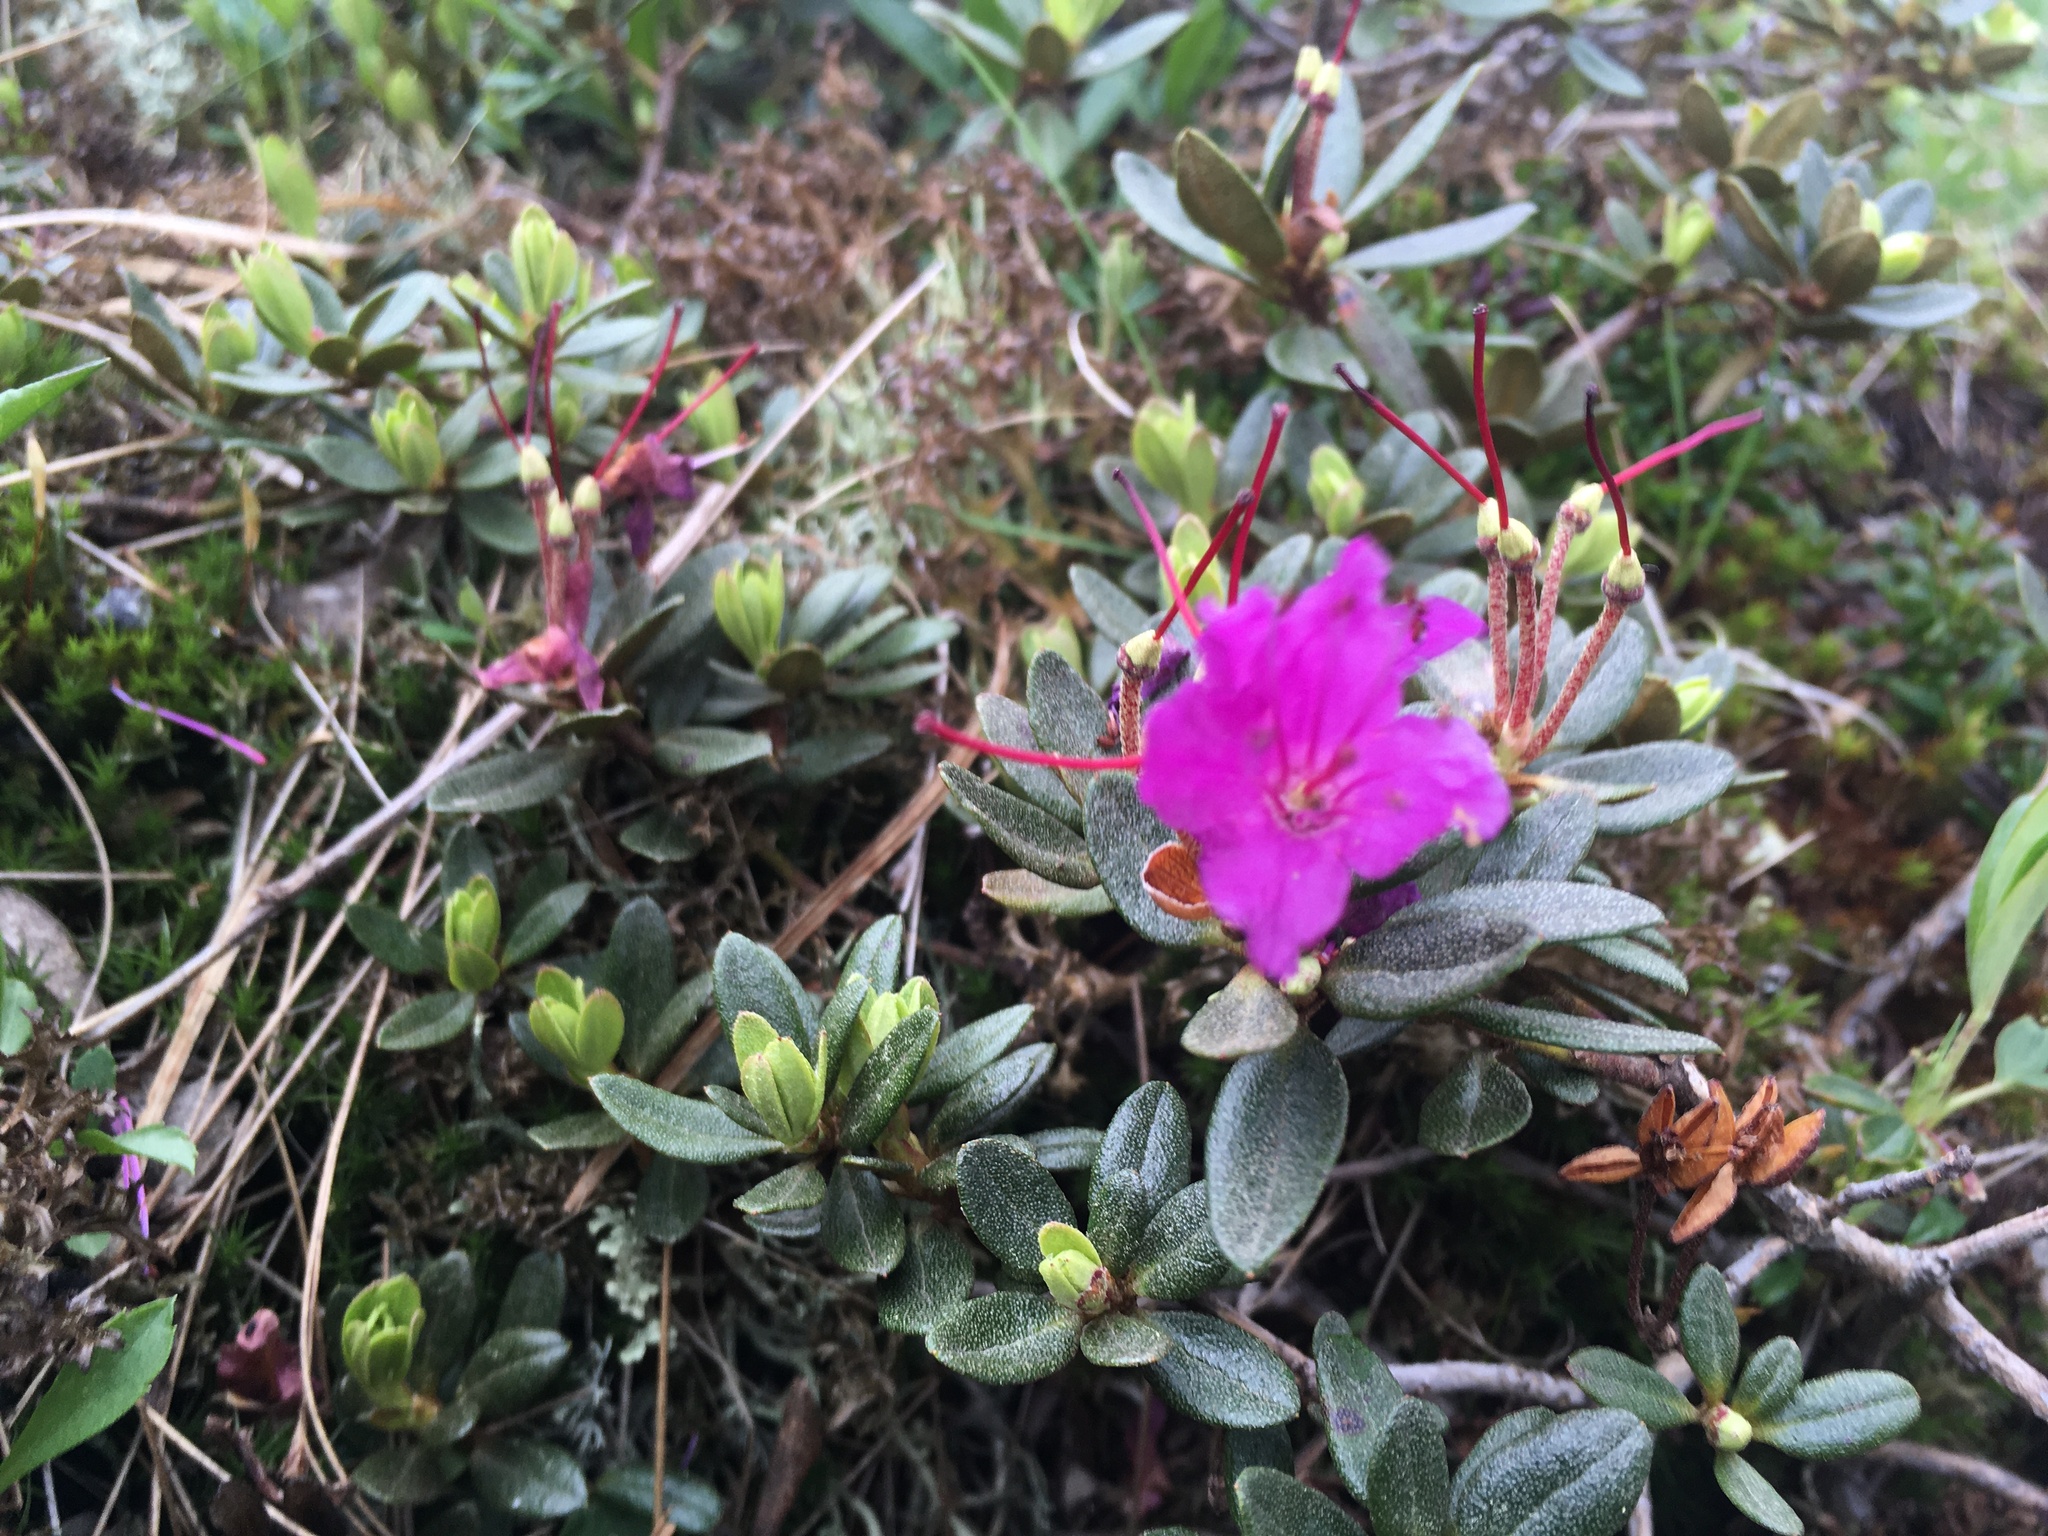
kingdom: Plantae
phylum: Tracheophyta
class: Magnoliopsida
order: Ericales
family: Ericaceae
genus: Rhododendron
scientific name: Rhododendron lapponicum
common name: Lapland rhododendron
